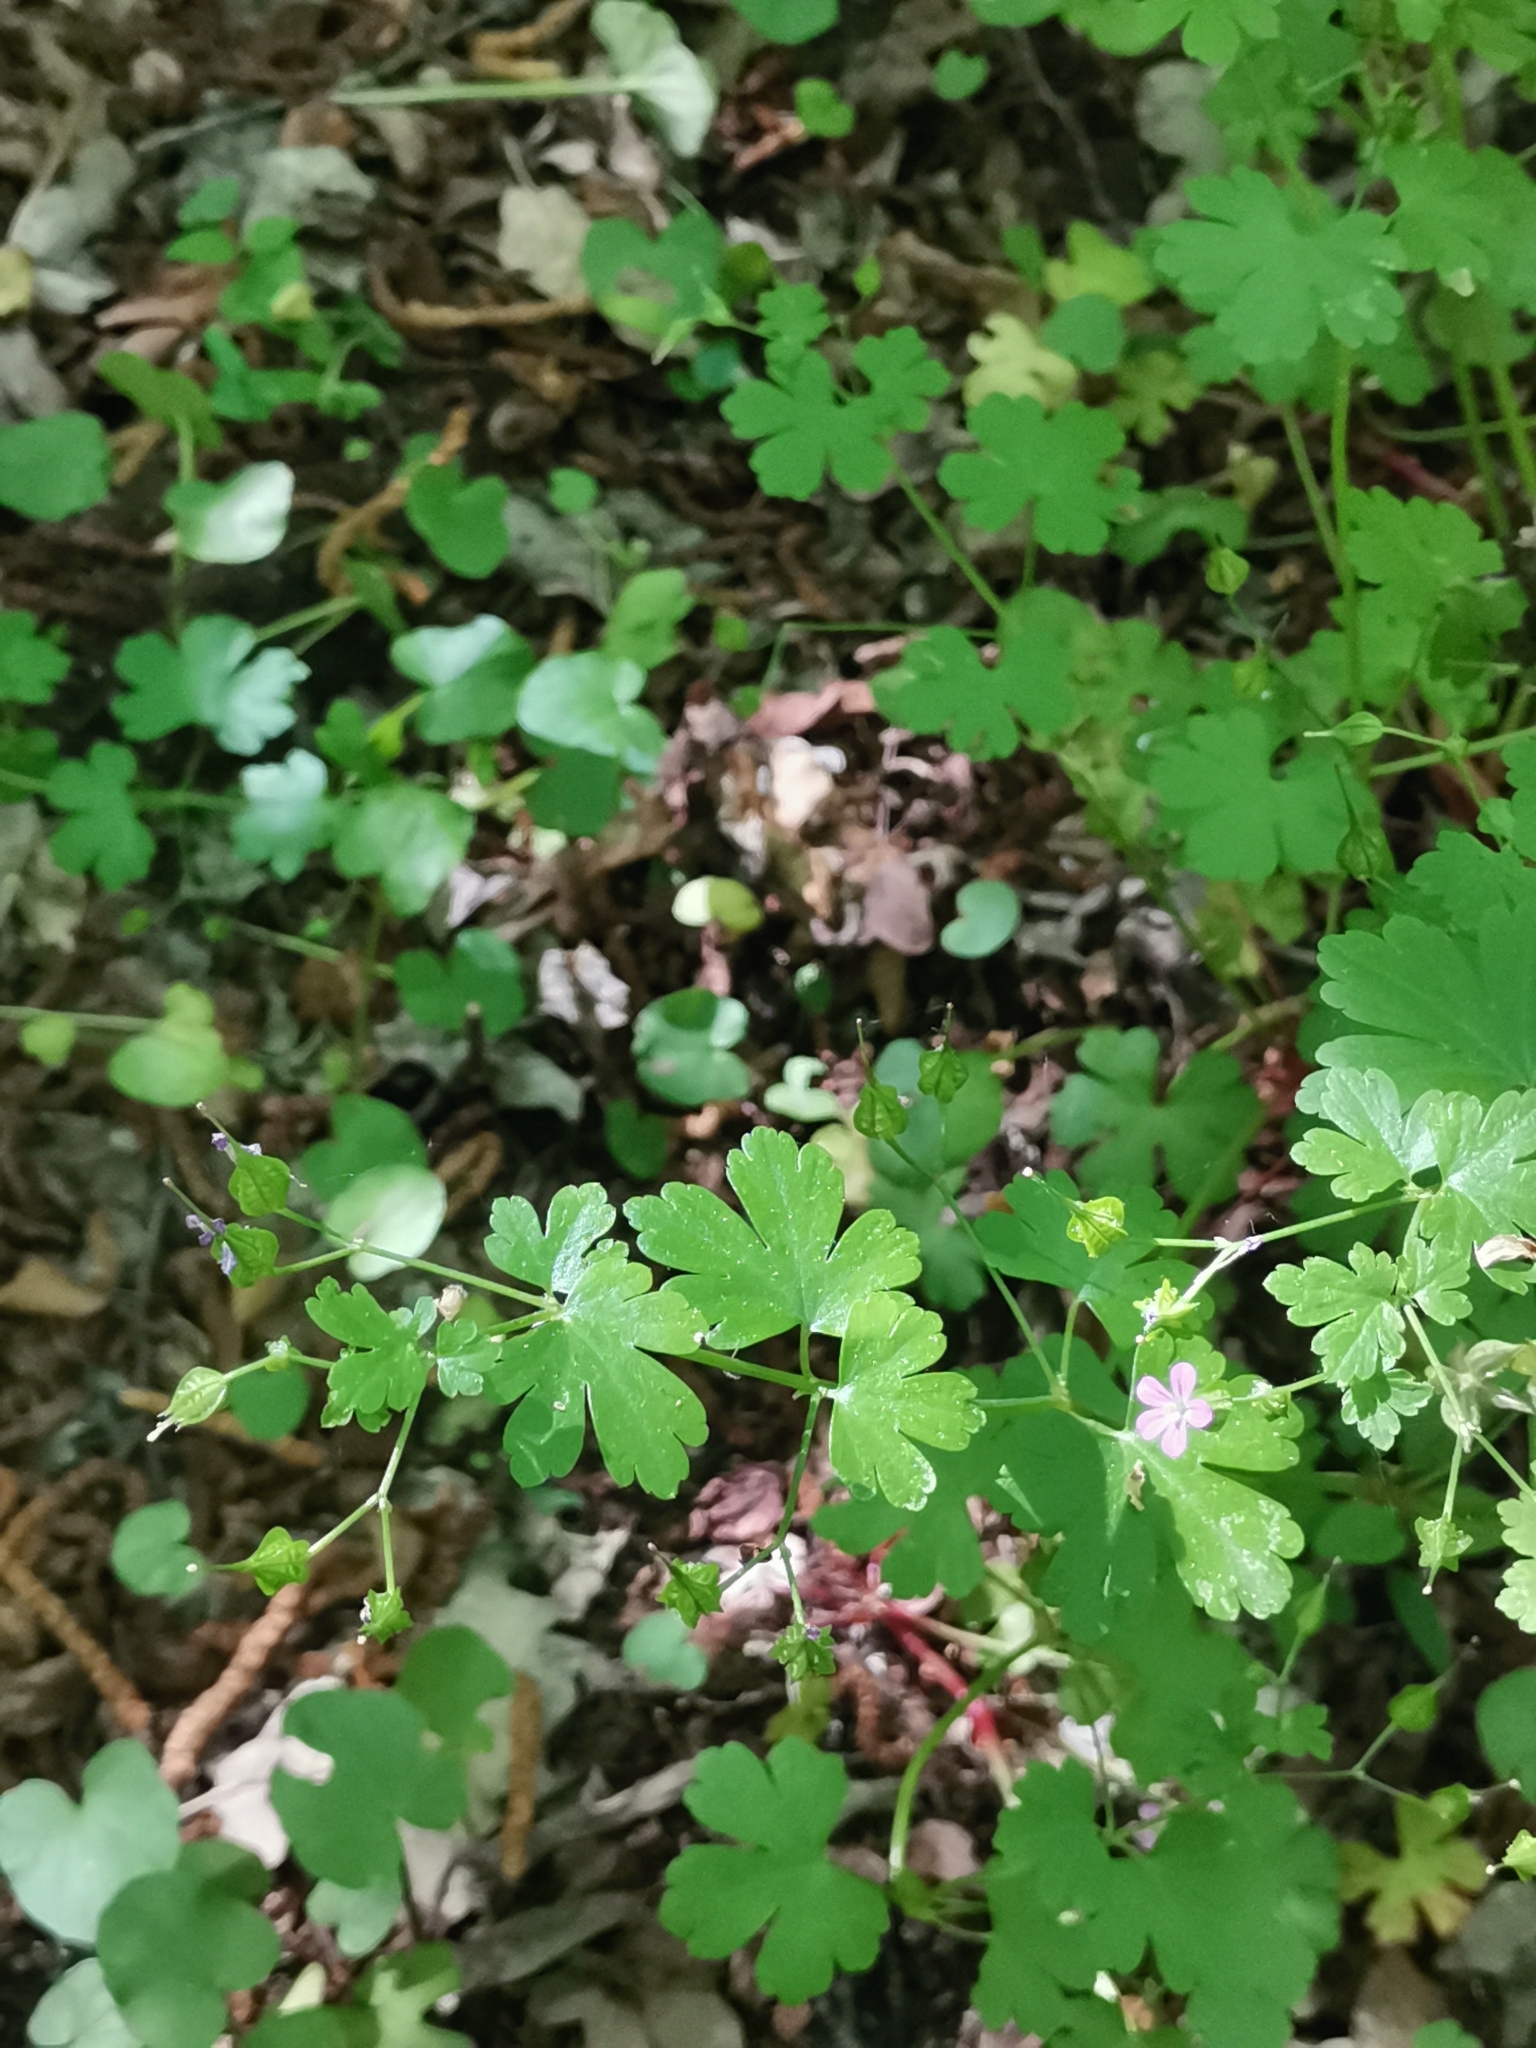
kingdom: Plantae
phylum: Tracheophyta
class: Magnoliopsida
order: Geraniales
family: Geraniaceae
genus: Geranium
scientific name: Geranium lucidum
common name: Shining crane's-bill
